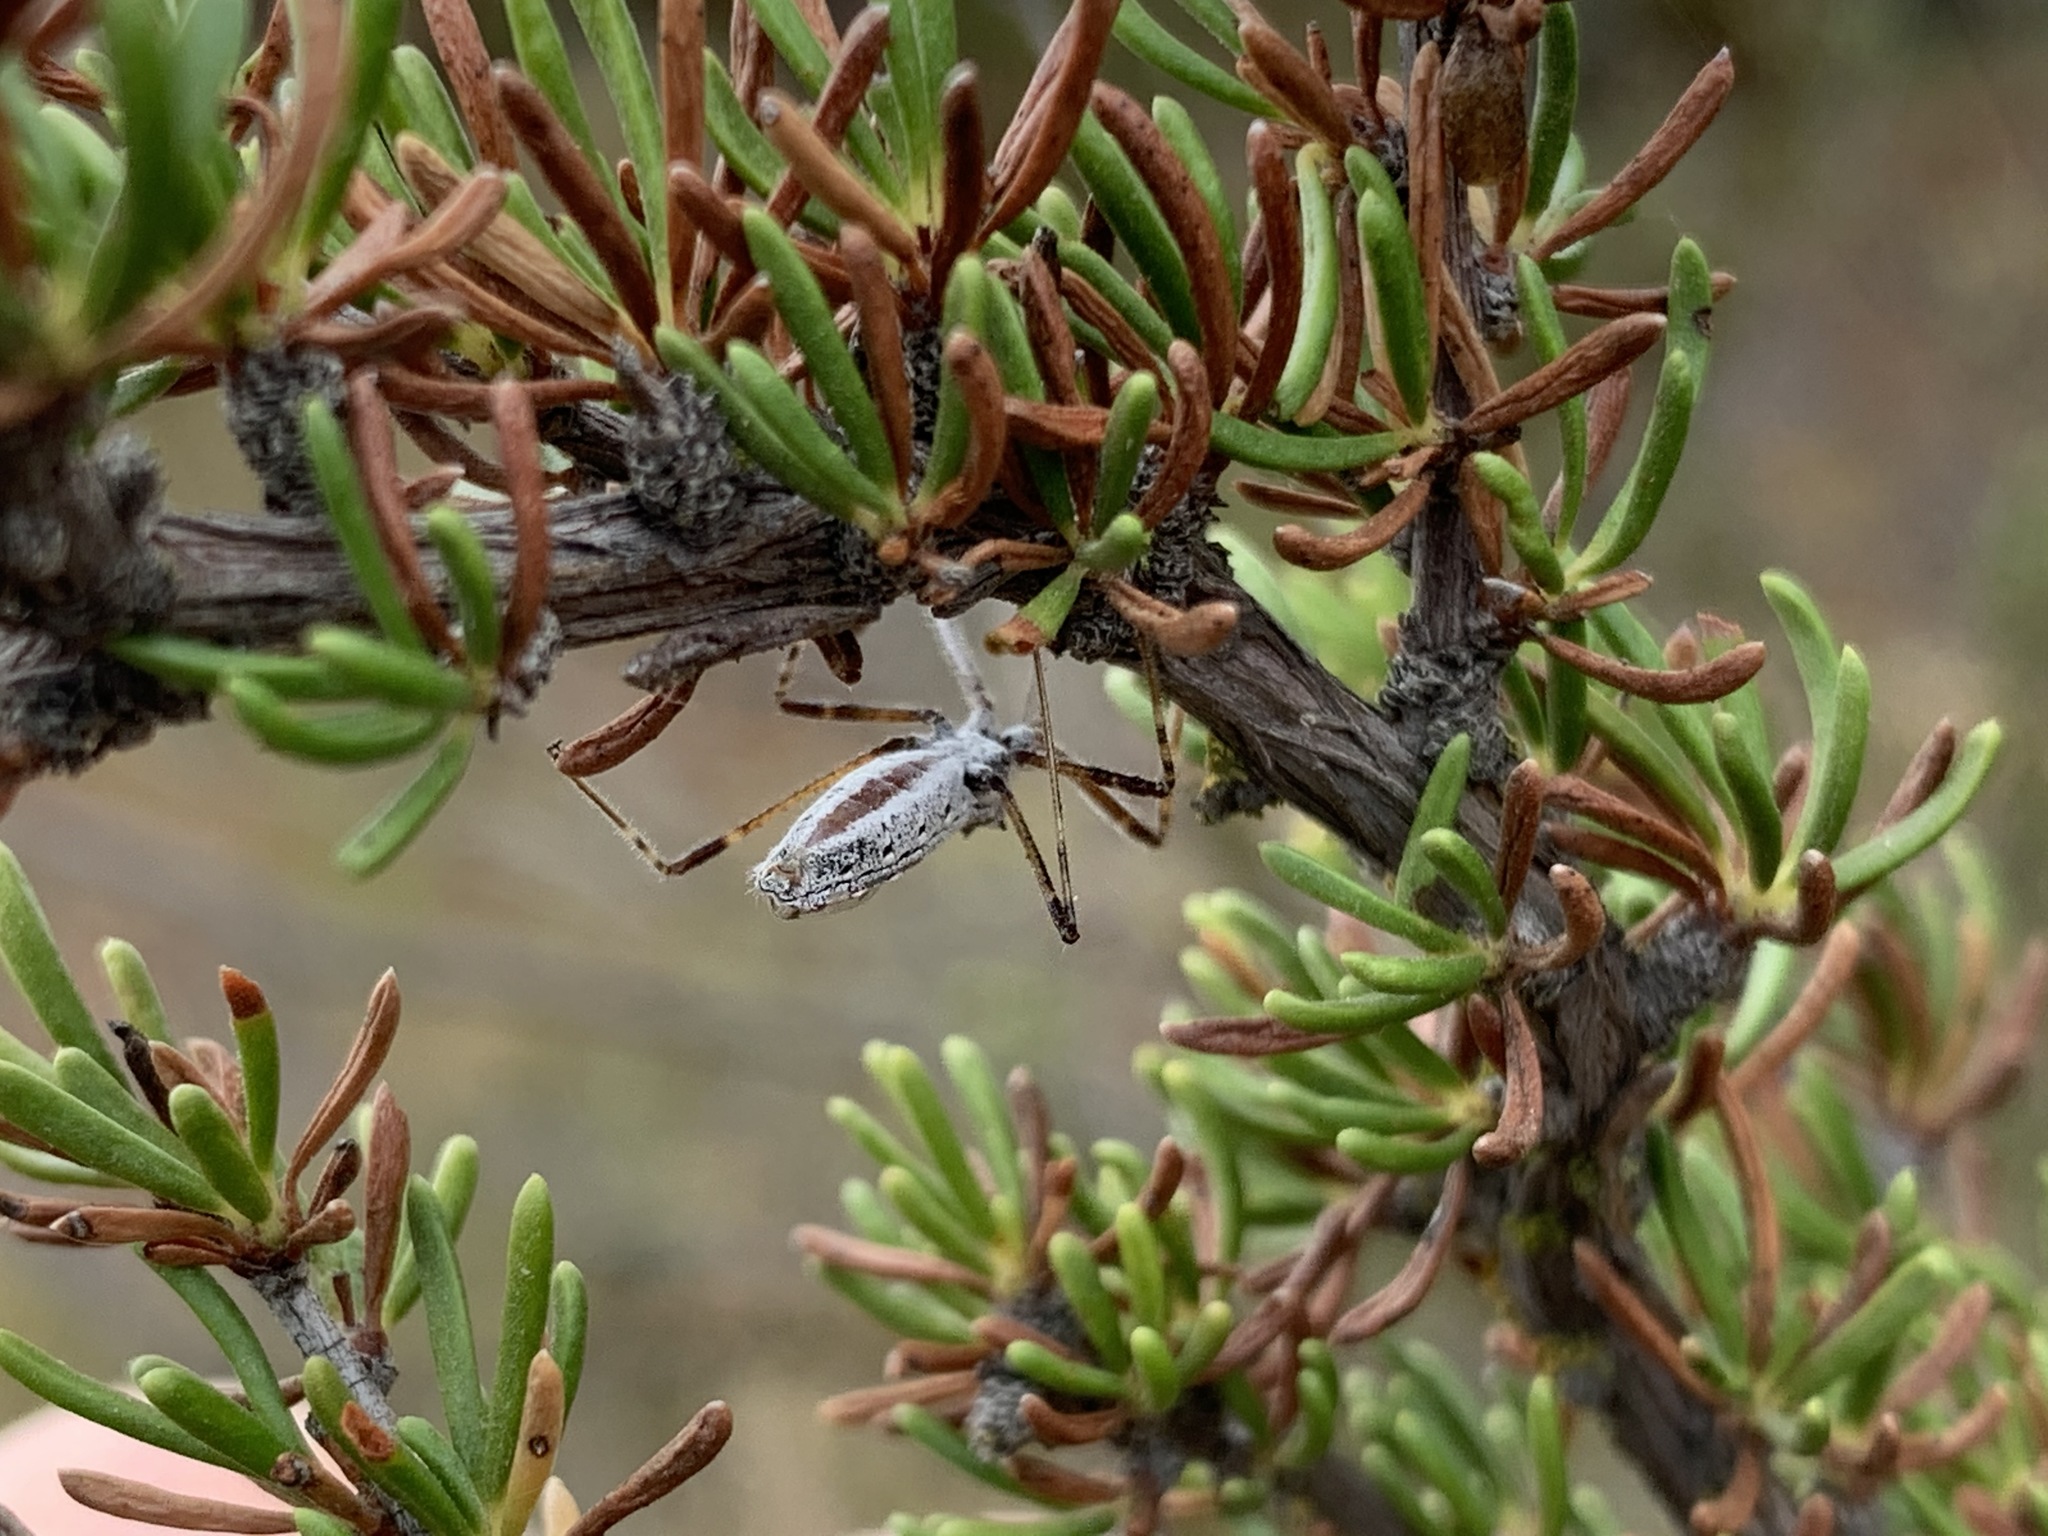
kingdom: Animalia
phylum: Arthropoda
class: Insecta
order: Hemiptera
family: Reduviidae
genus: Zelus
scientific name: Zelus tetracanthus
